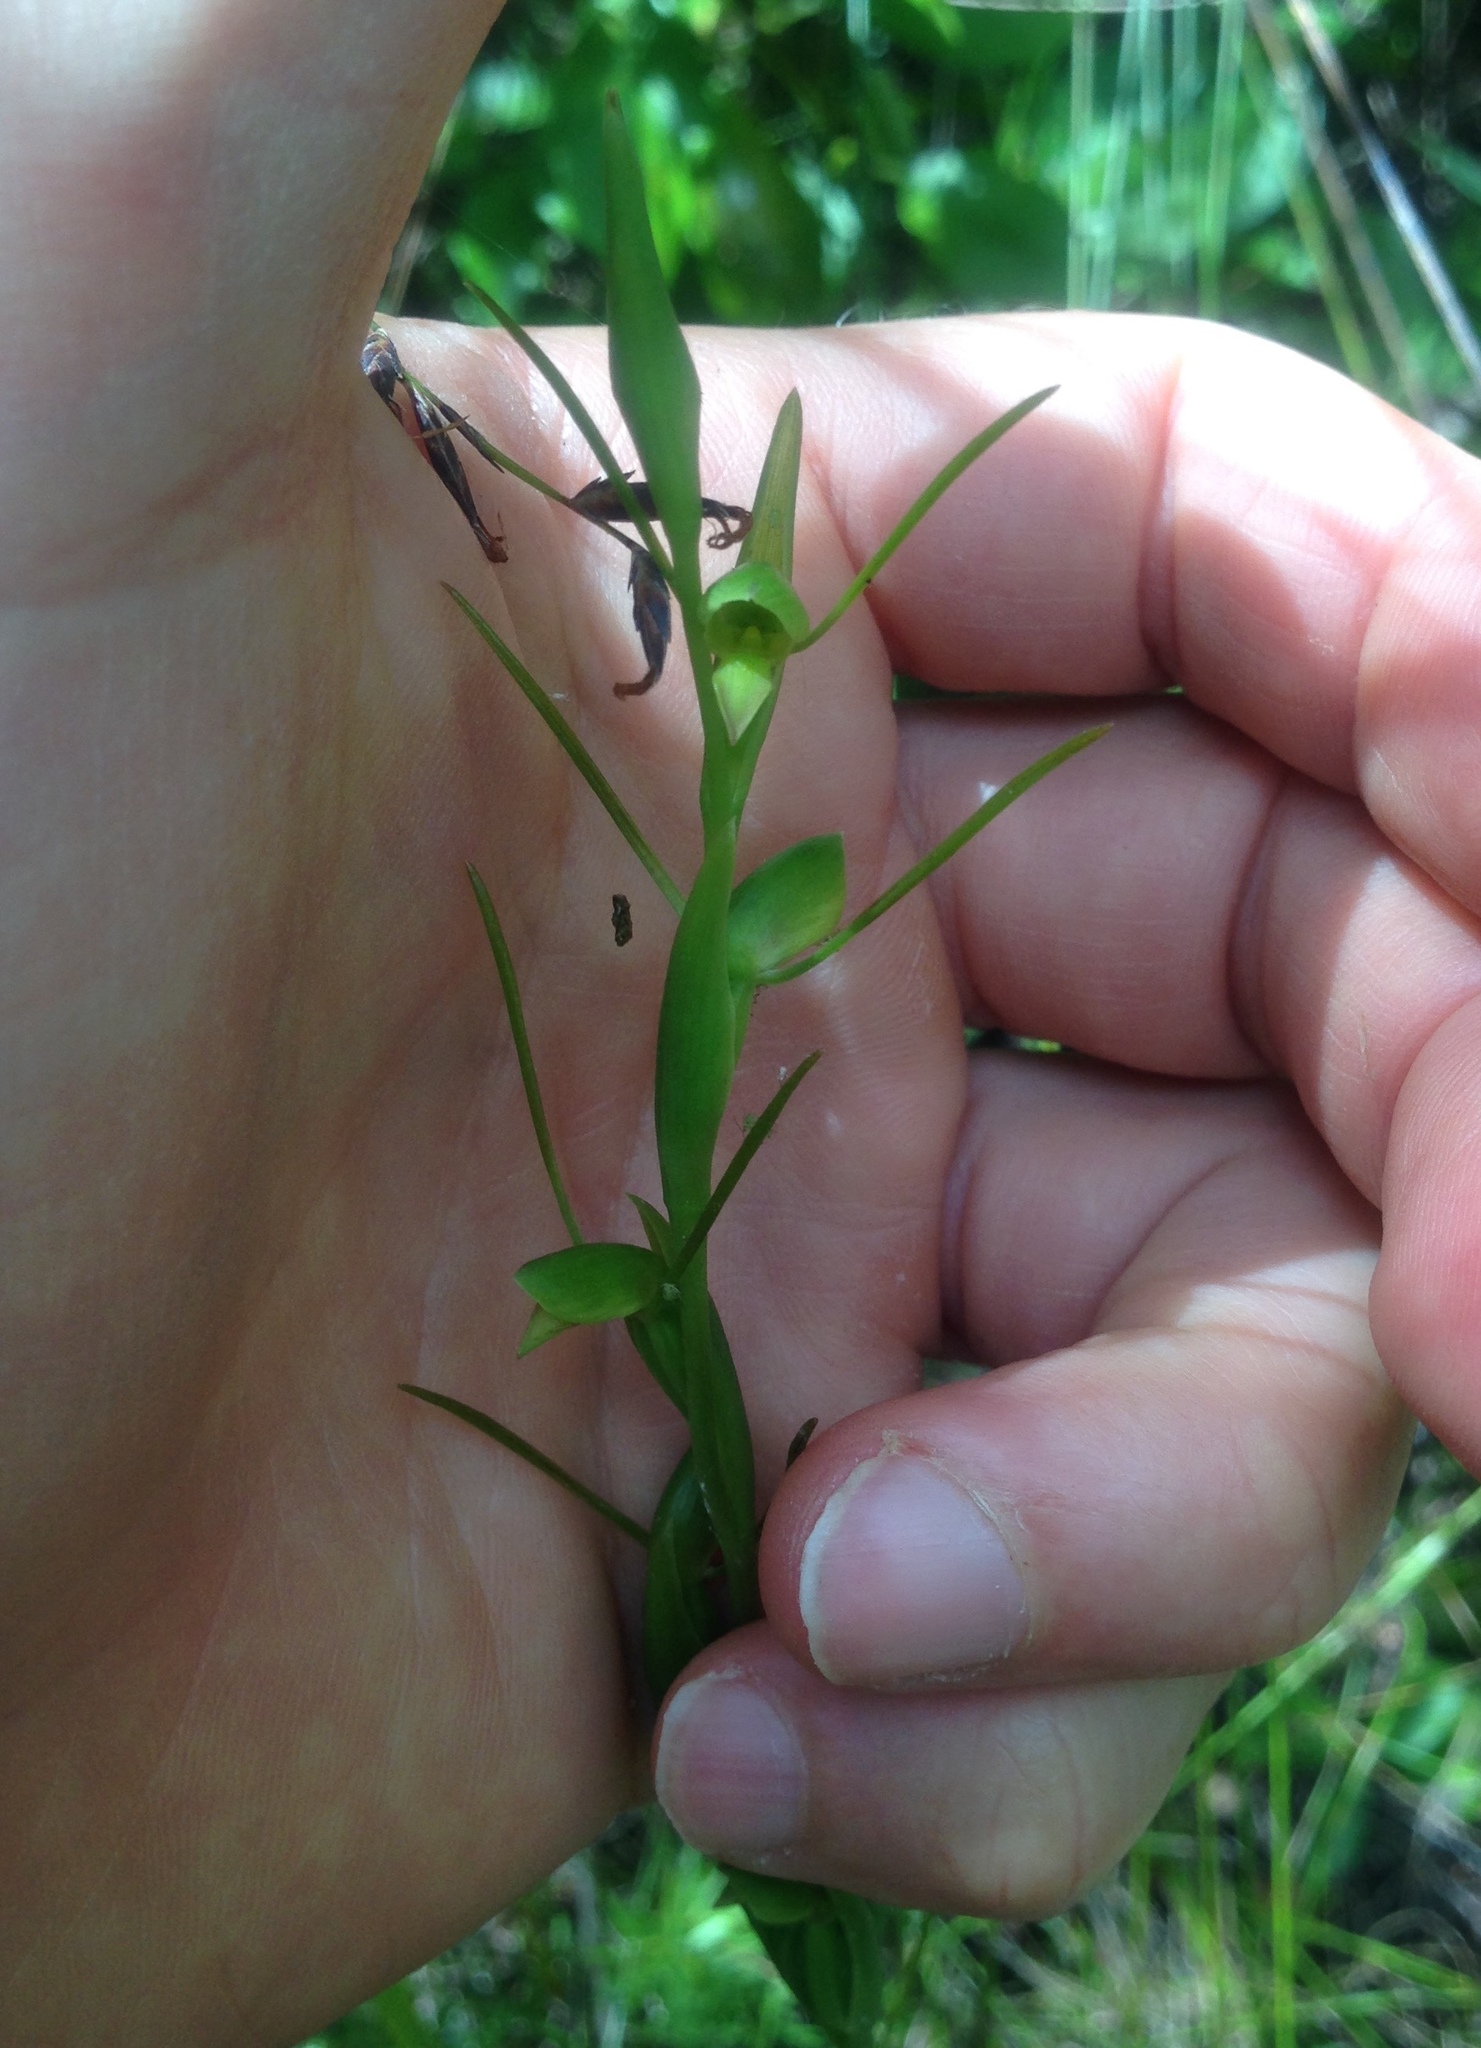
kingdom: Plantae
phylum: Tracheophyta
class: Liliopsida
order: Asparagales
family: Orchidaceae
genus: Orthoceras
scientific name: Orthoceras novae-zeelandiae
